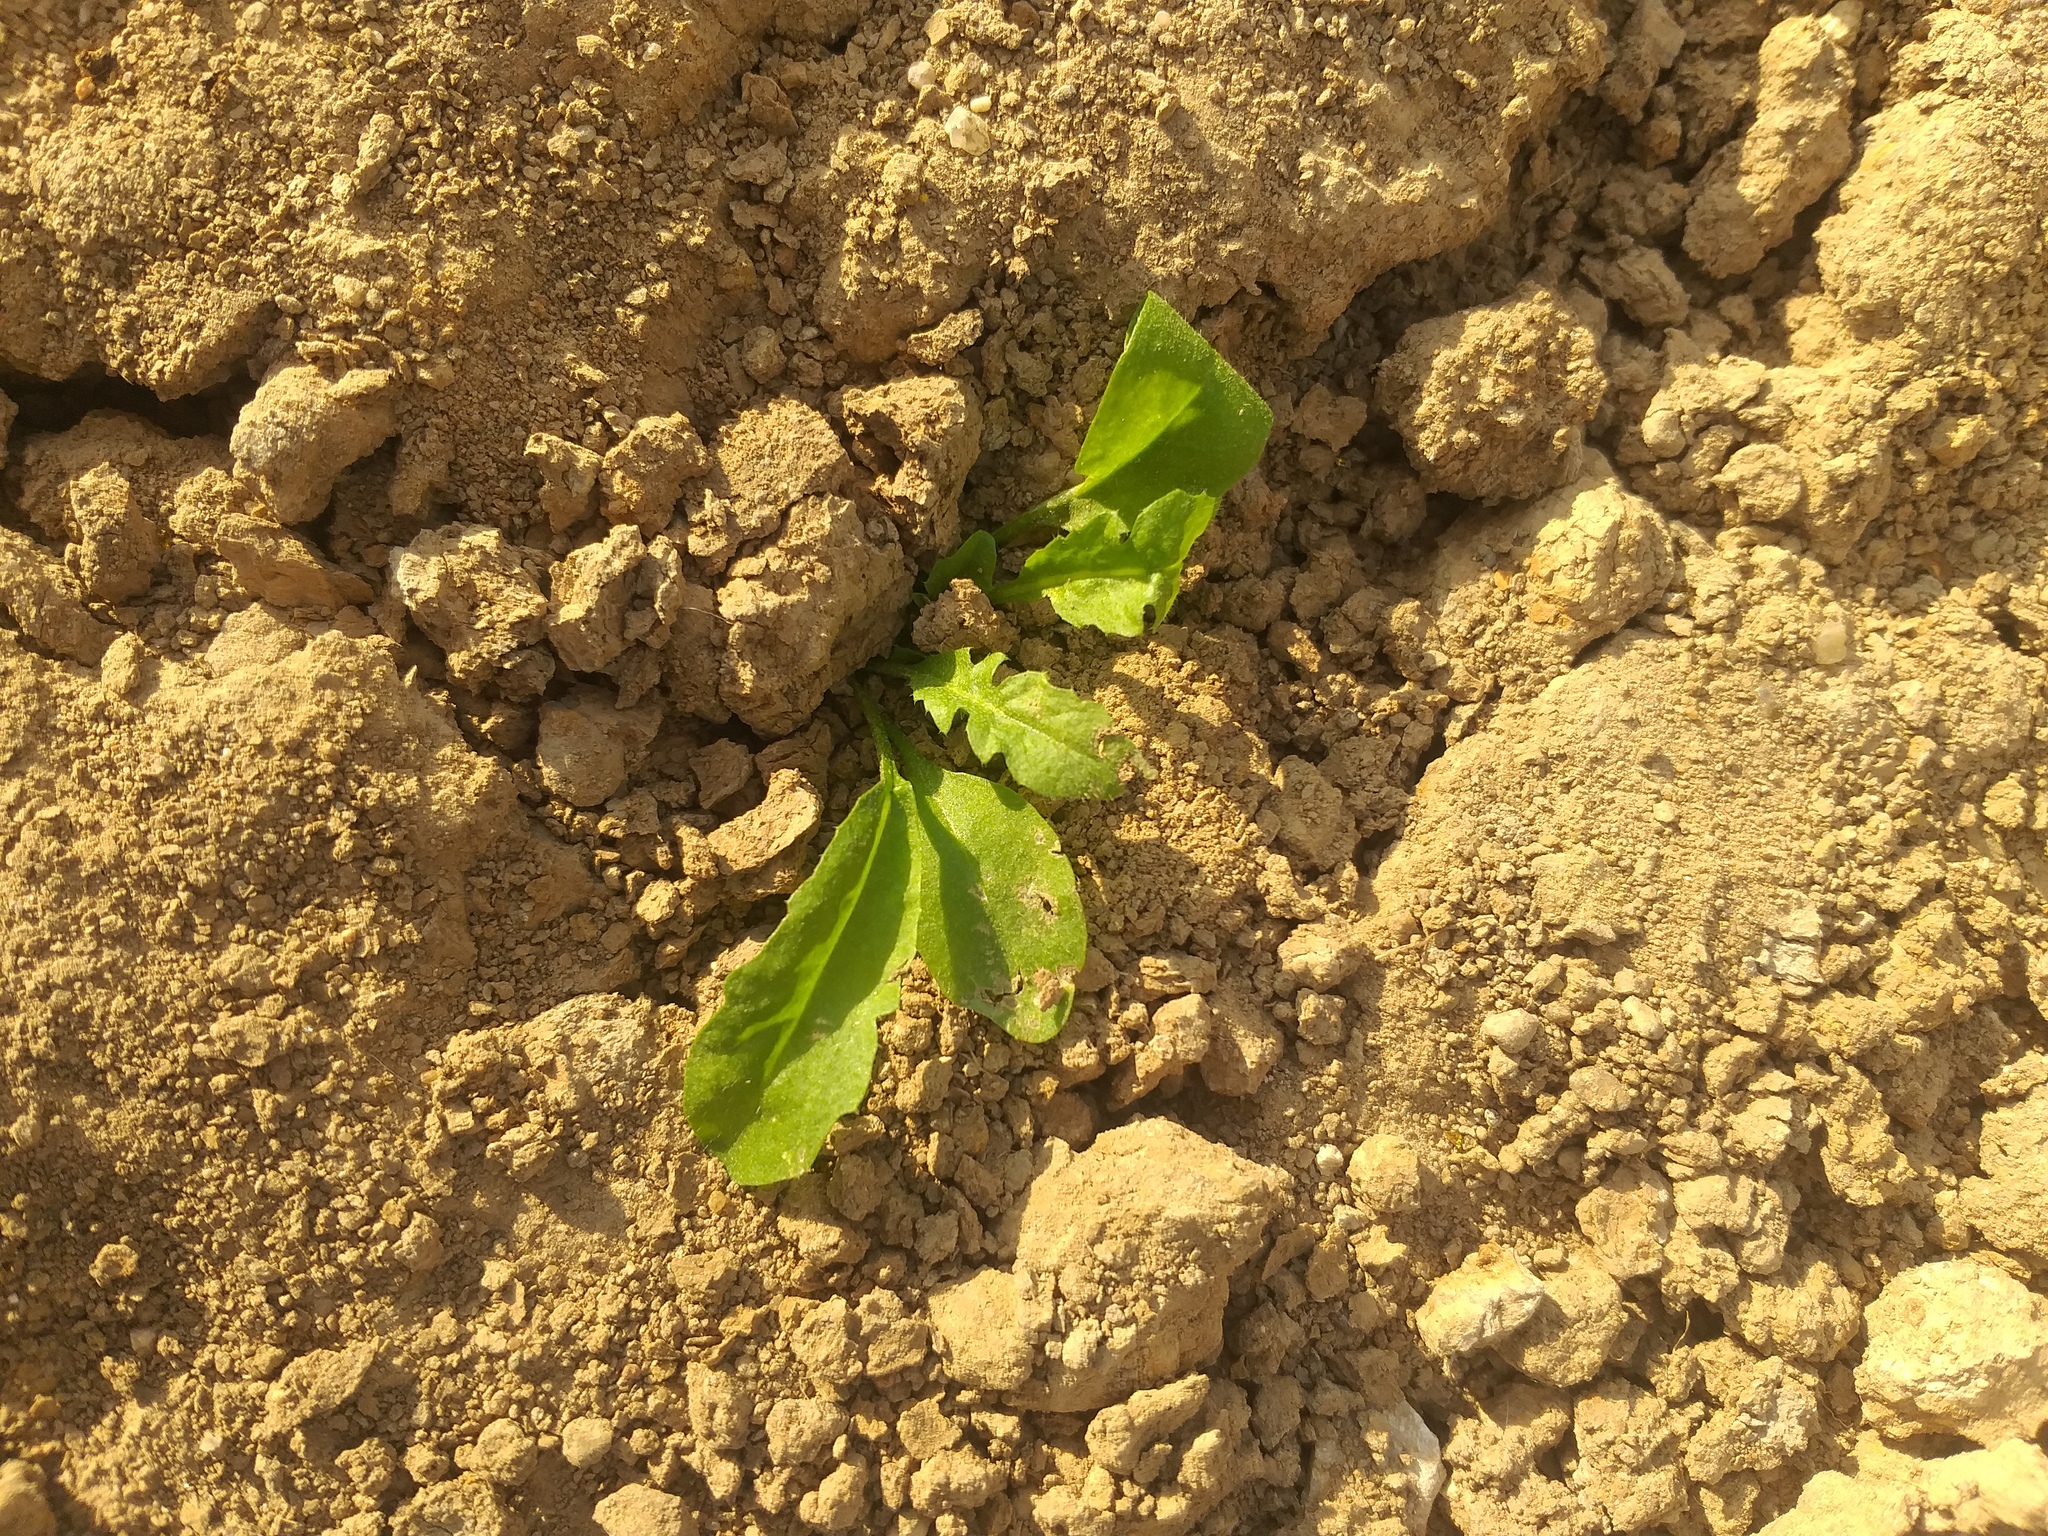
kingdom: Plantae
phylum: Tracheophyta
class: Magnoliopsida
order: Brassicales
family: Brassicaceae
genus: Capsella
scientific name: Capsella bursa-pastoris
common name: Shepherd's purse
